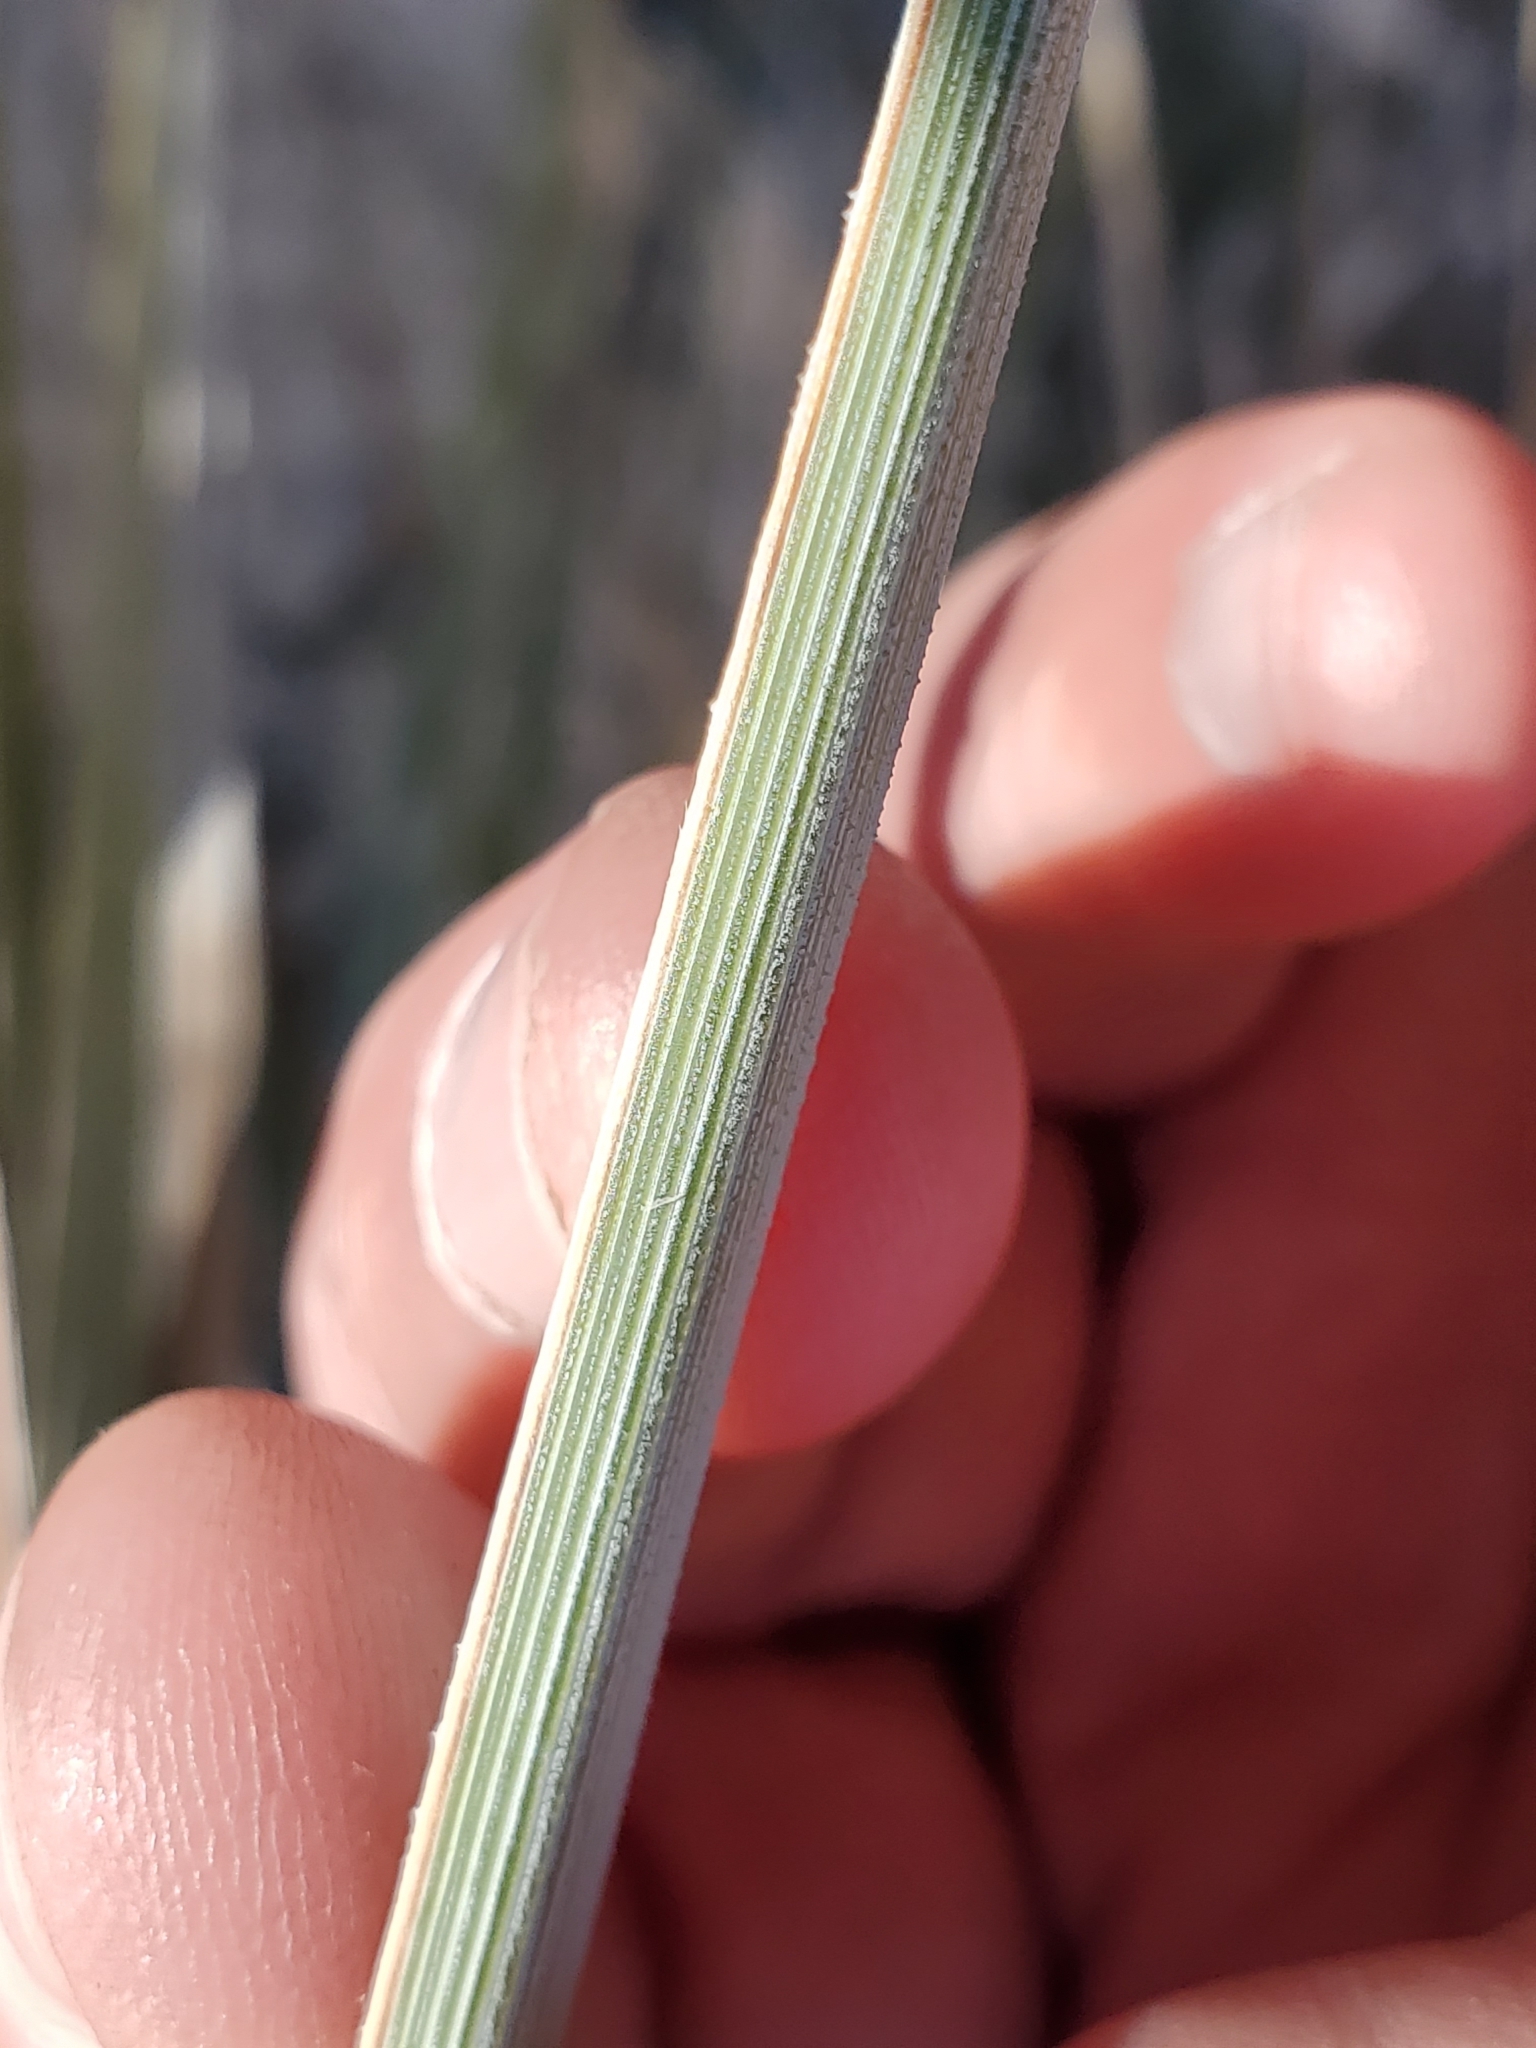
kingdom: Plantae
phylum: Tracheophyta
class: Liliopsida
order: Asparagales
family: Asparagaceae
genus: Nolina
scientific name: Nolina bigelovii
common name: Bigelow bear-grass
